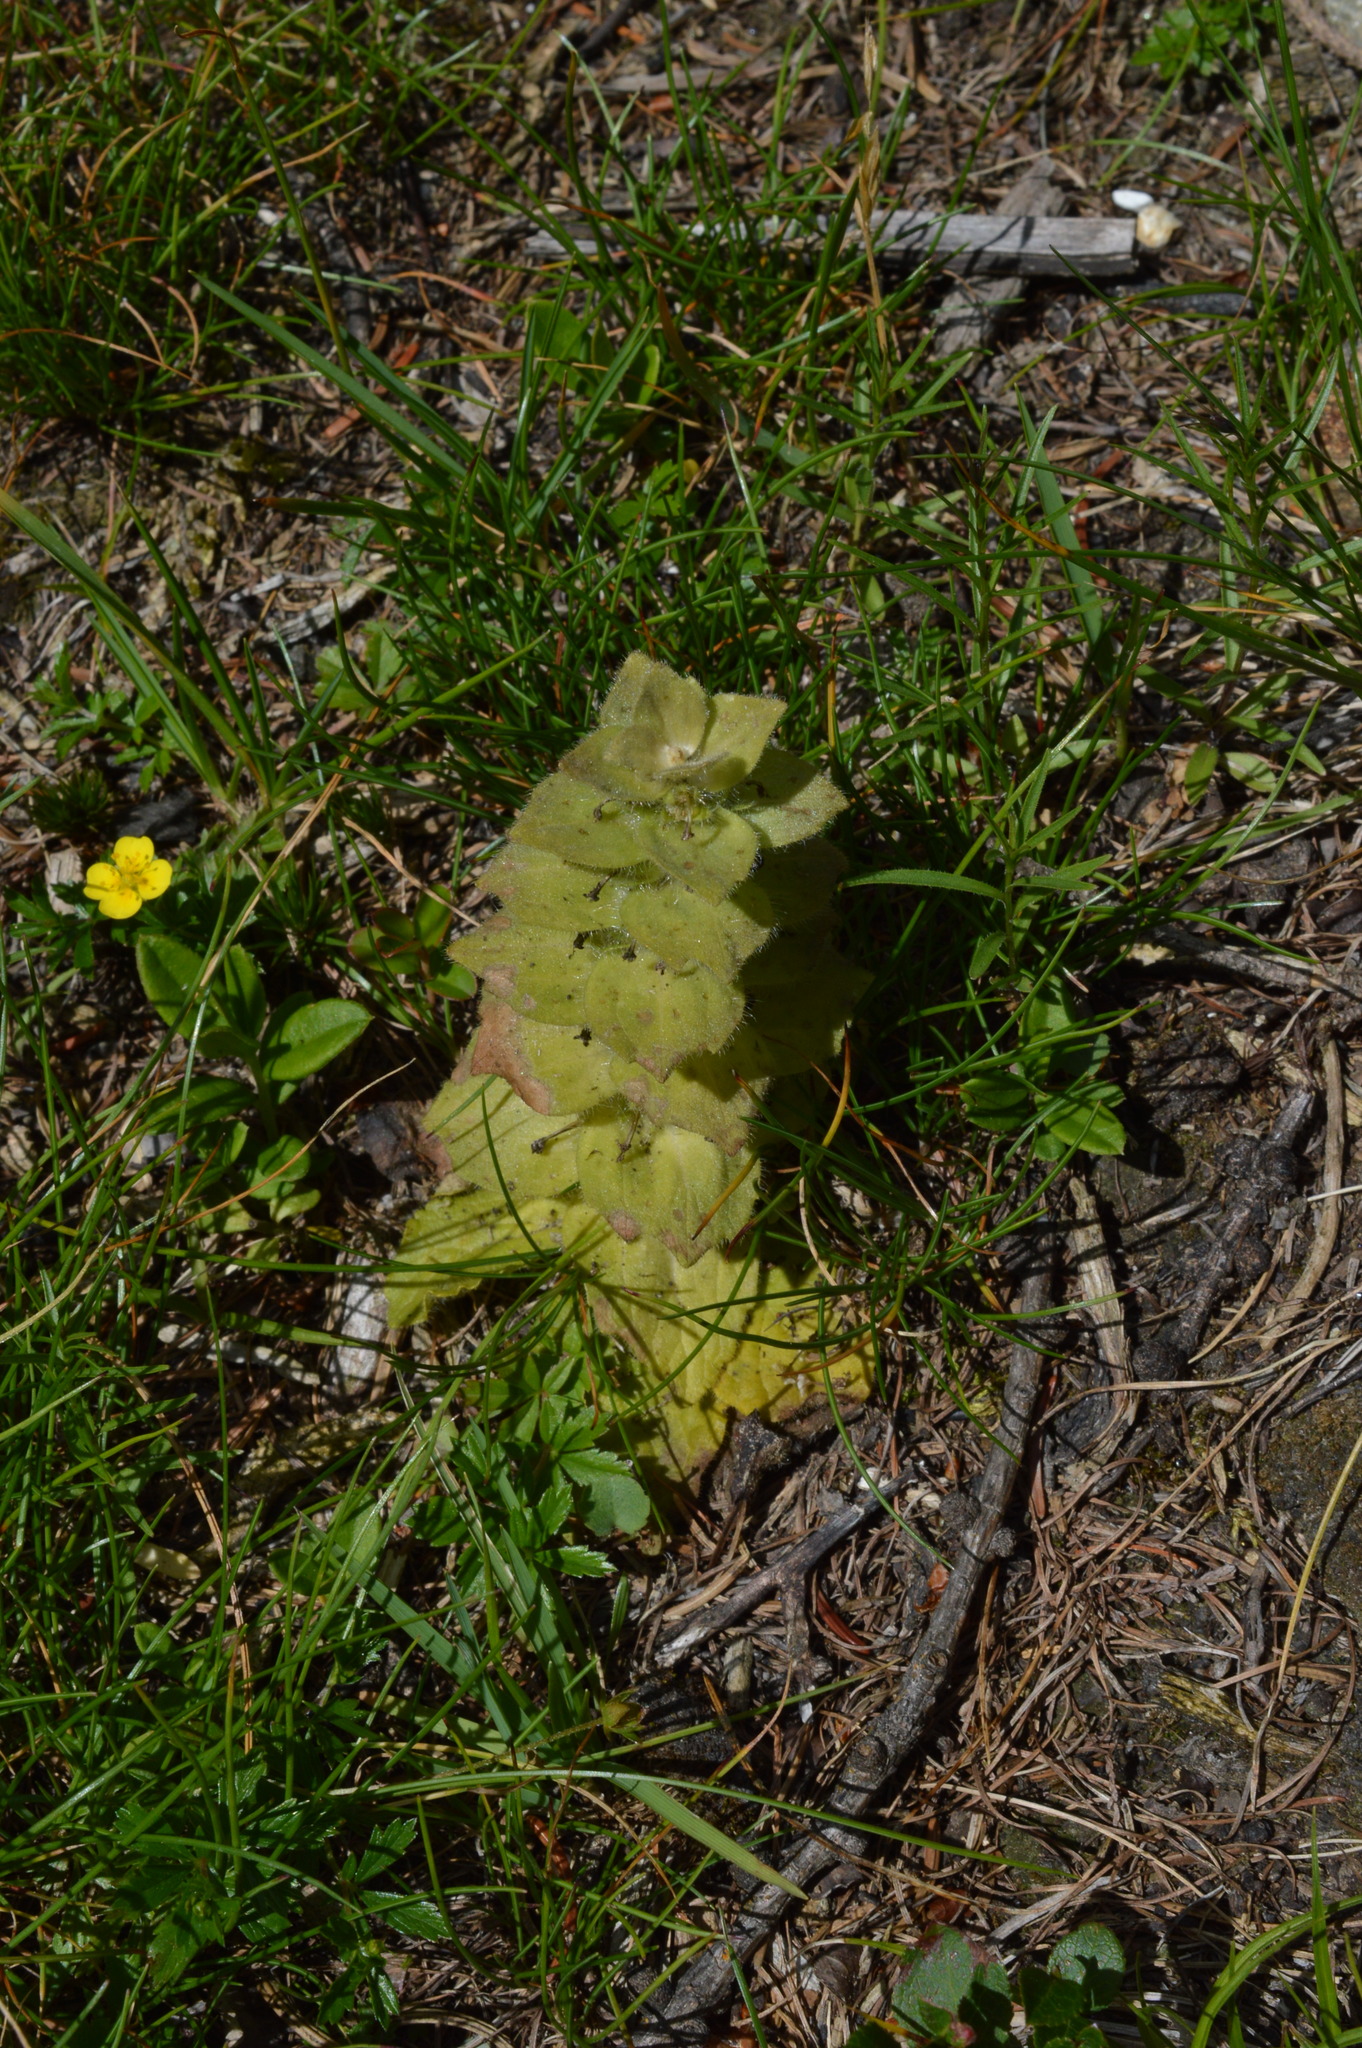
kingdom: Plantae
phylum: Tracheophyta
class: Magnoliopsida
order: Lamiales
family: Lamiaceae
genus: Ajuga
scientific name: Ajuga pyramidalis
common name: Pyramid bugle
